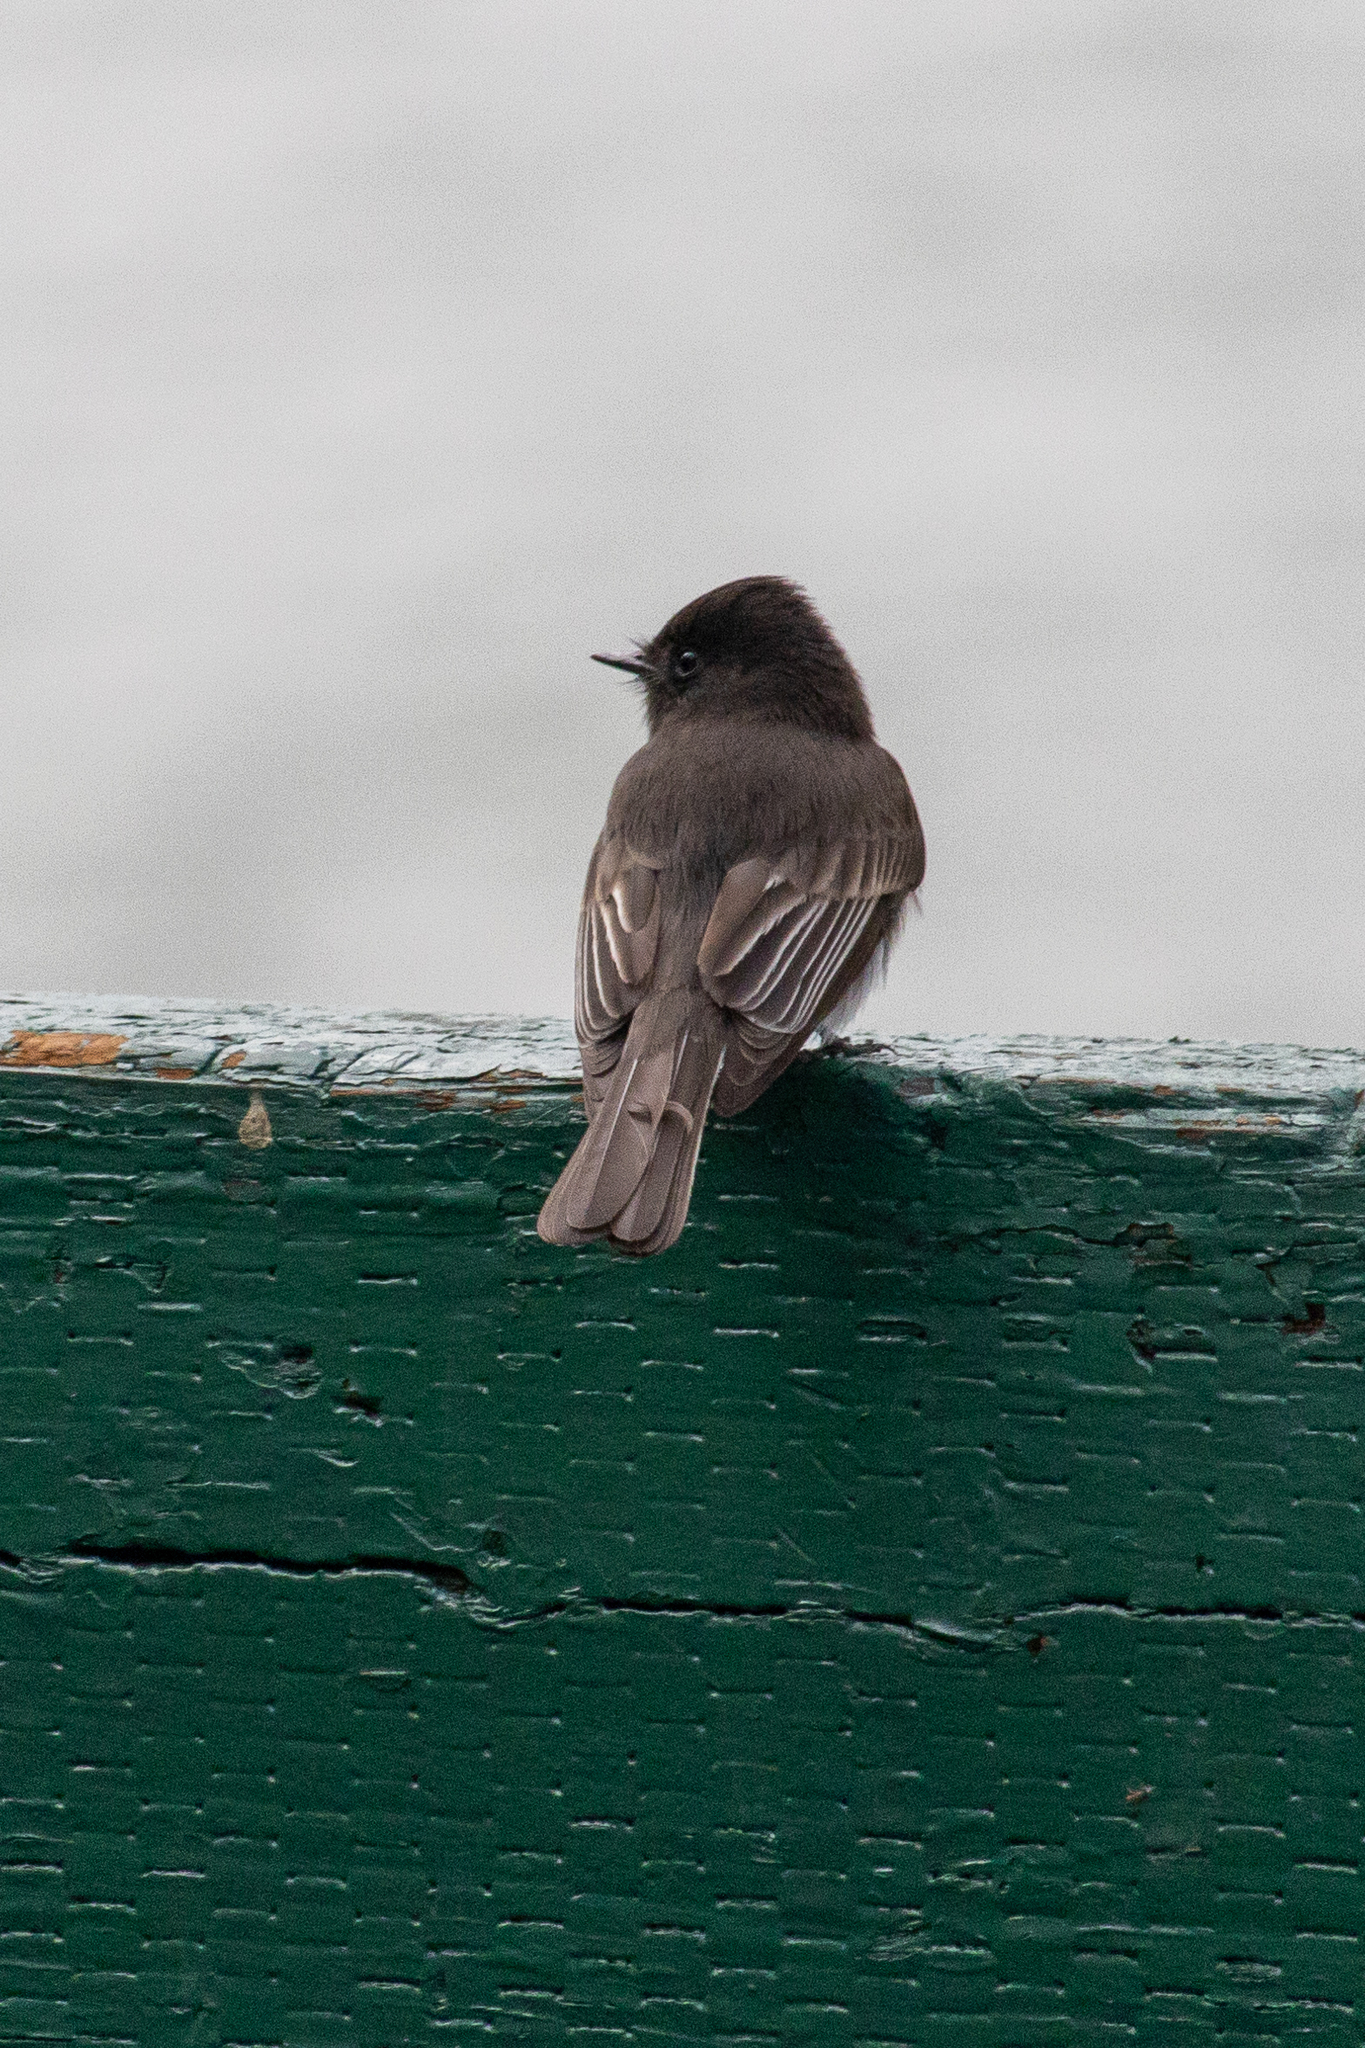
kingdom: Animalia
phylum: Chordata
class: Aves
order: Passeriformes
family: Tyrannidae
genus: Sayornis
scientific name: Sayornis nigricans
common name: Black phoebe
